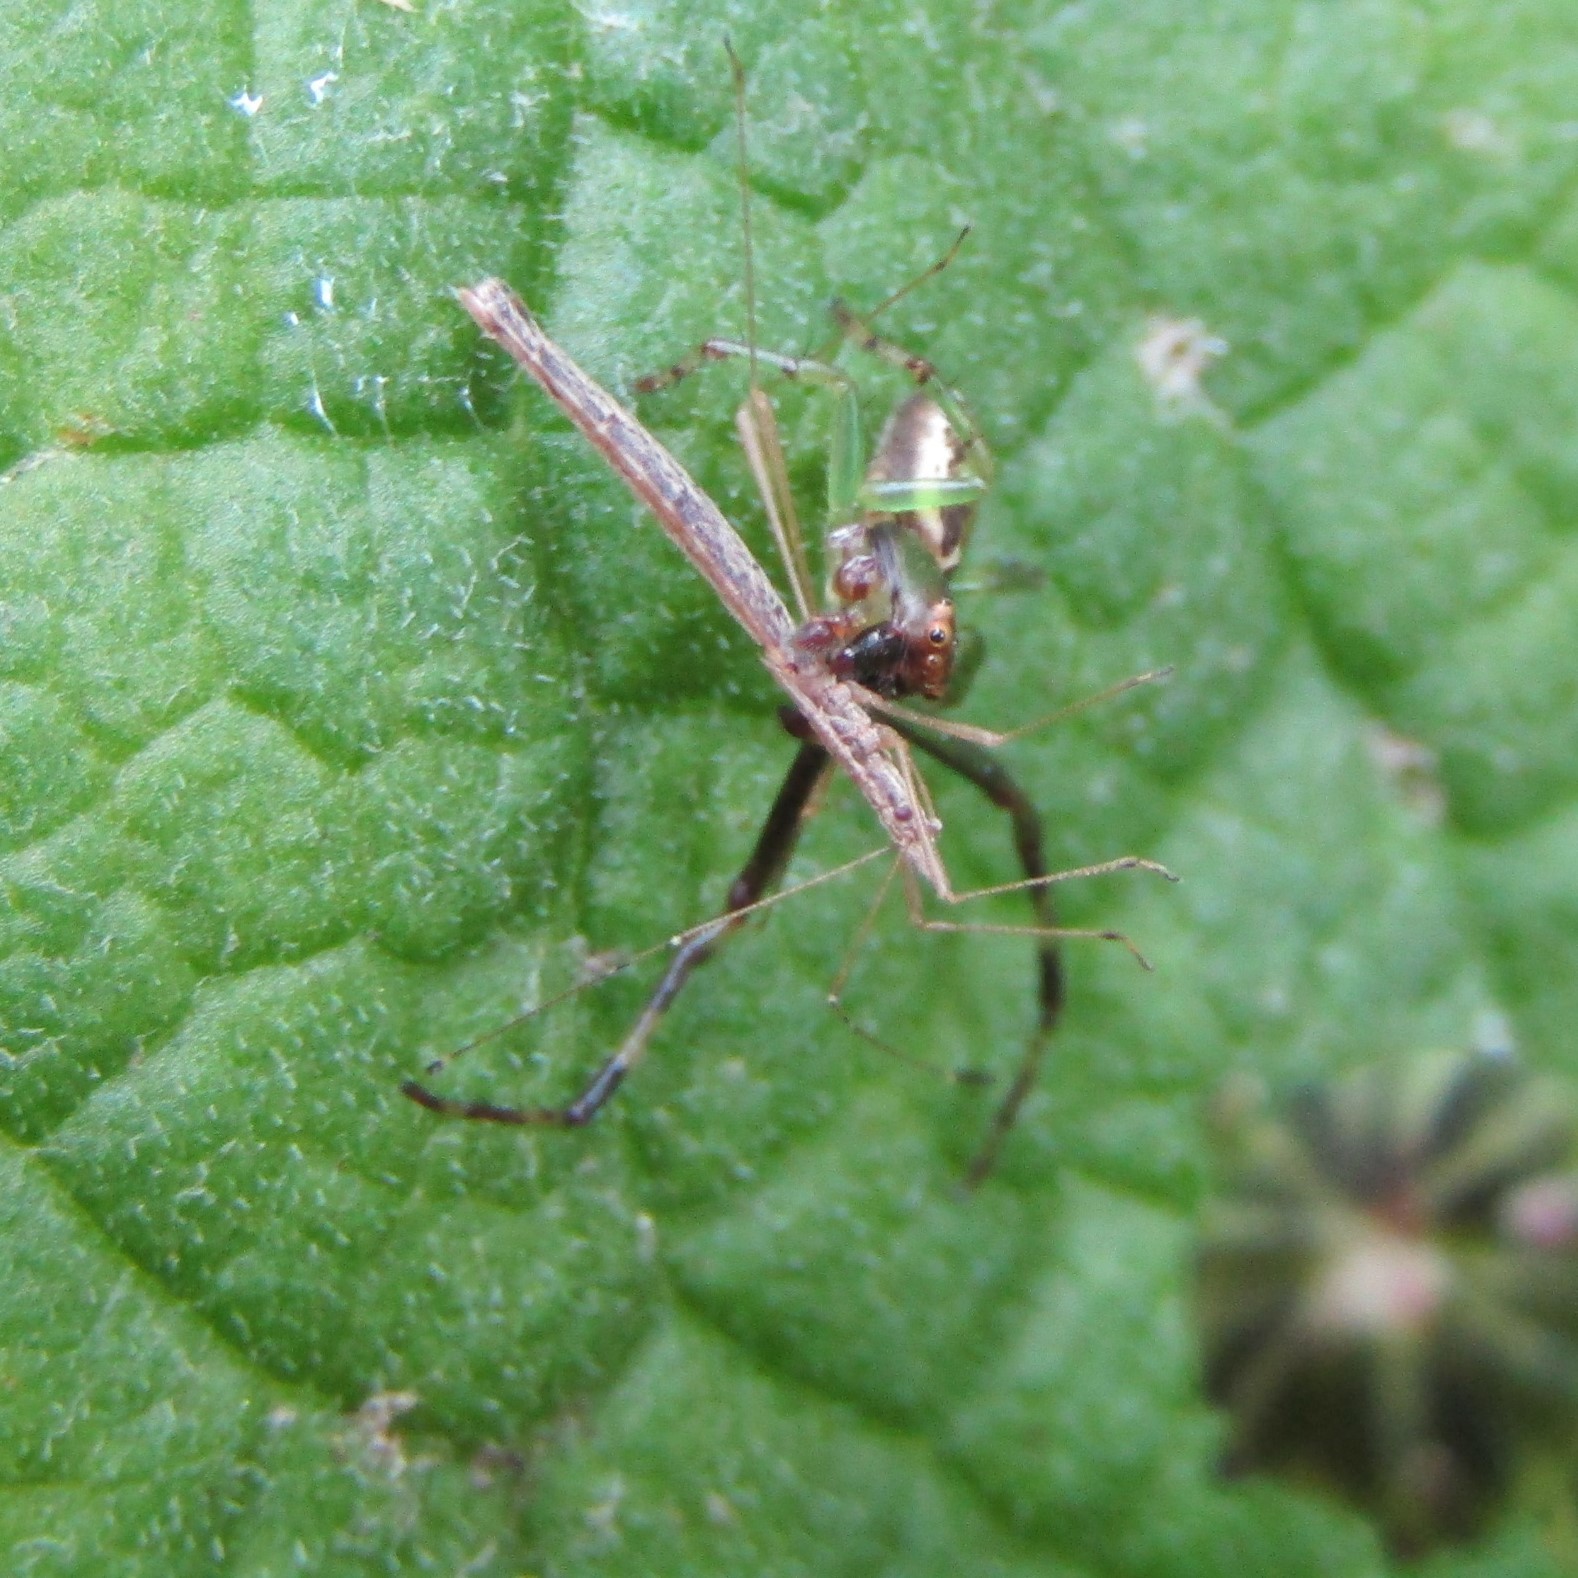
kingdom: Animalia
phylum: Arthropoda
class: Insecta
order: Hemiptera
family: Berytidae
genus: Bezu
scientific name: Bezu wakefieldi
